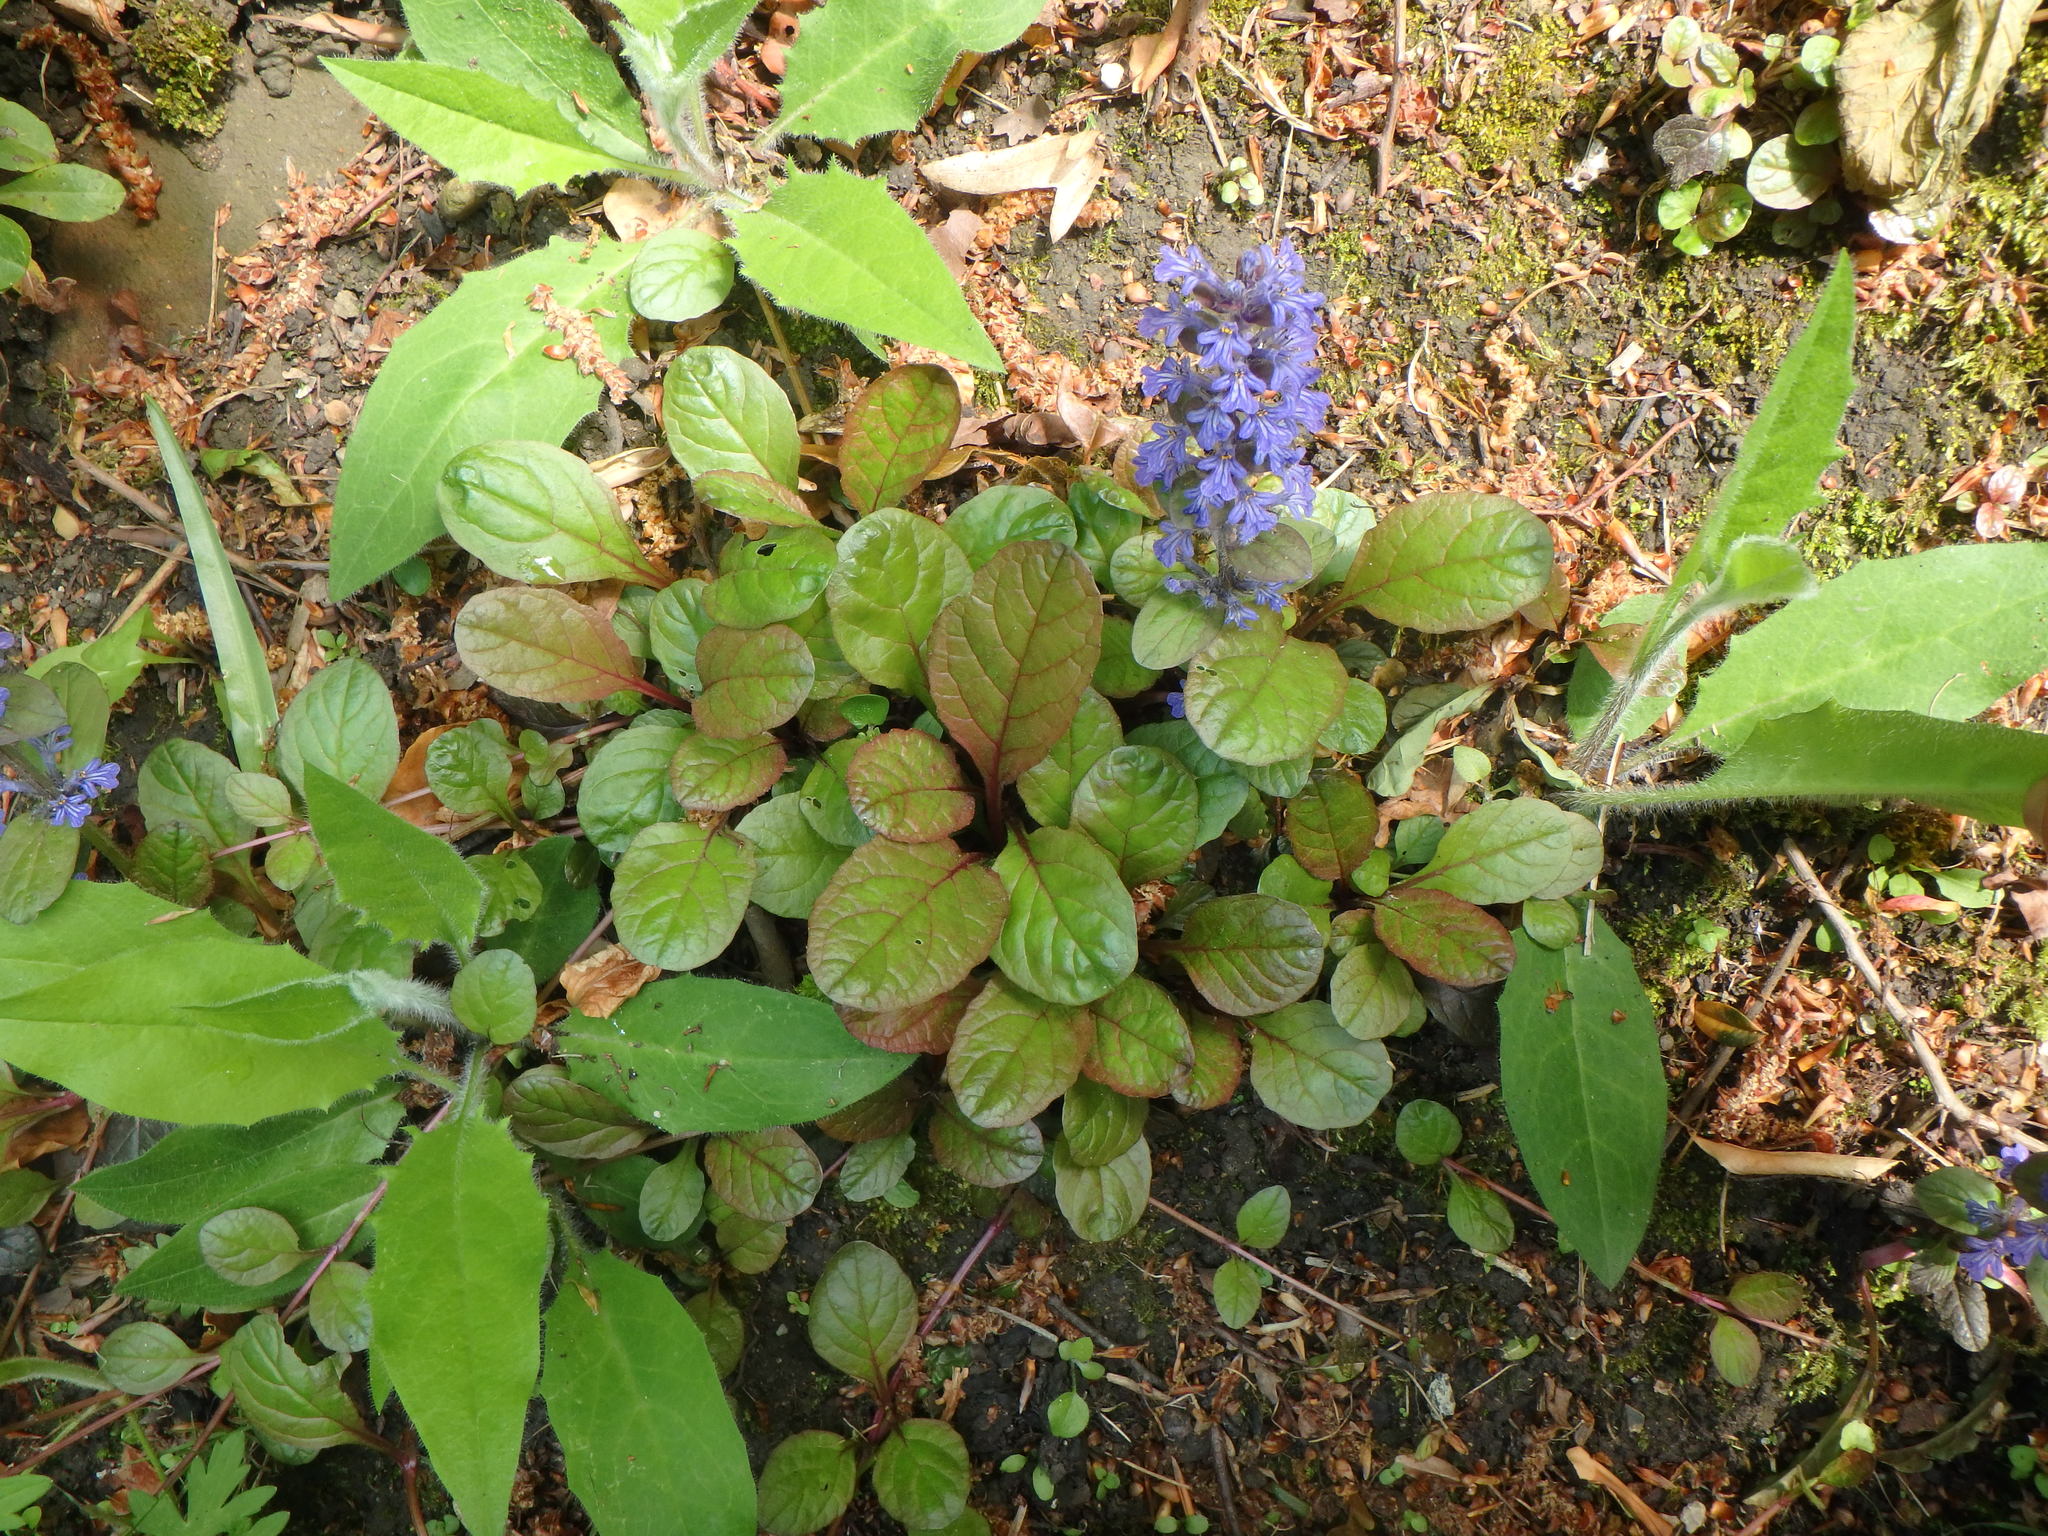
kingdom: Plantae
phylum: Tracheophyta
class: Magnoliopsida
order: Lamiales
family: Lamiaceae
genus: Ajuga
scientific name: Ajuga reptans
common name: Bugle
